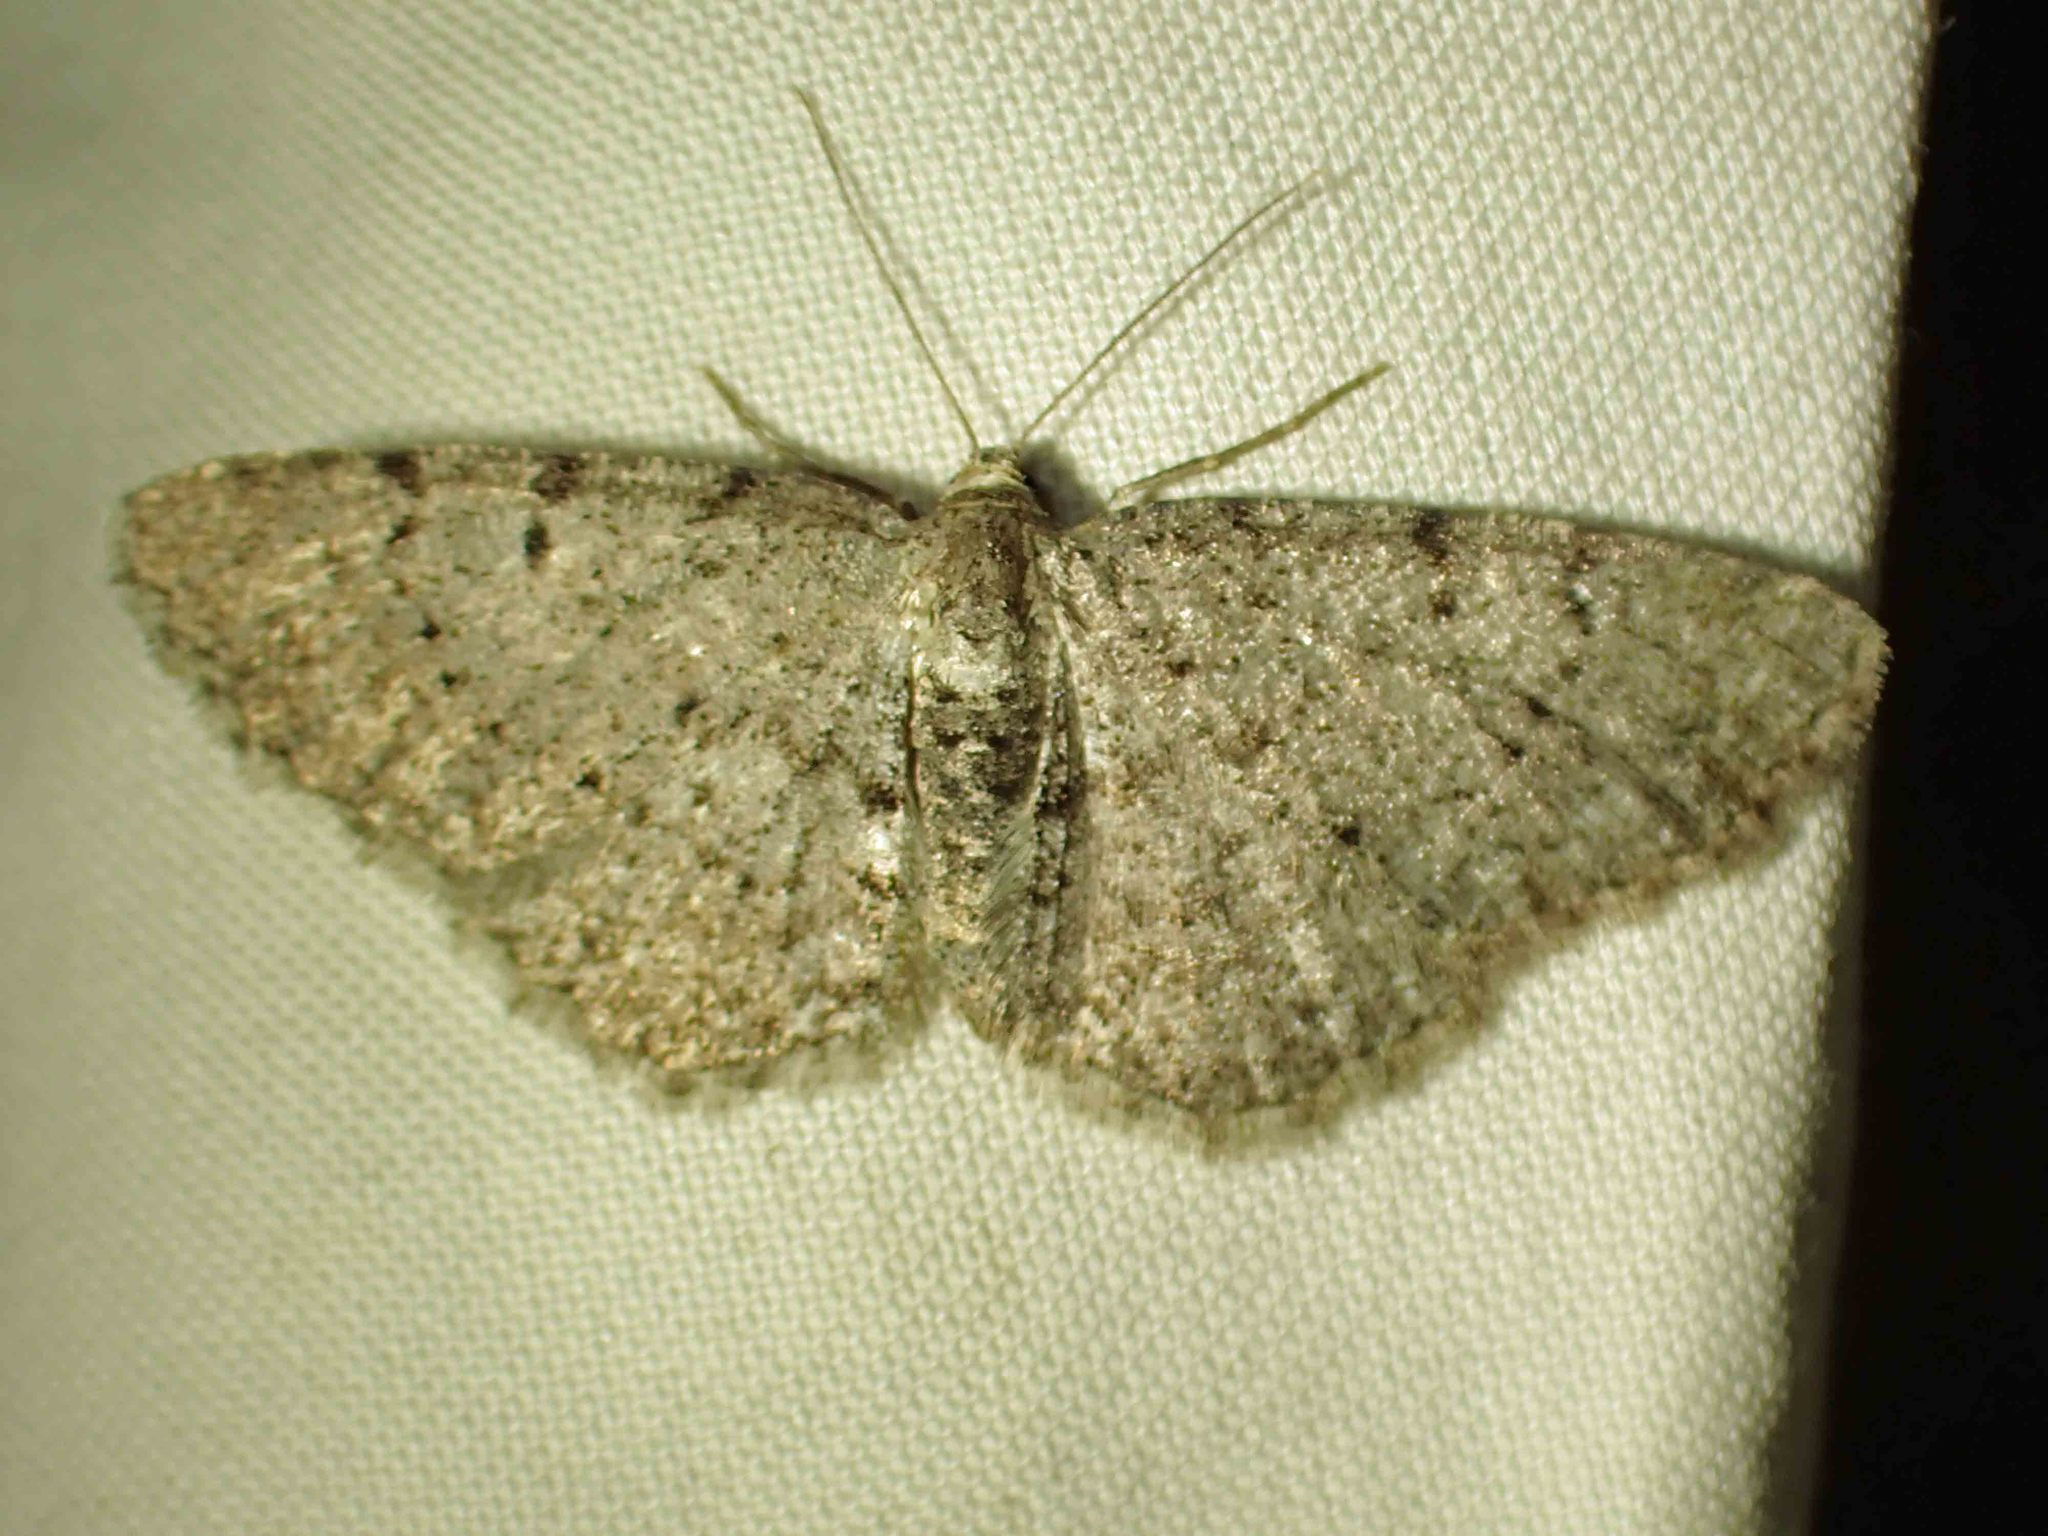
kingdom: Animalia
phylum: Arthropoda
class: Insecta
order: Lepidoptera
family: Geometridae
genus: Aethalura
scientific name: Aethalura intertexta
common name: Four-barred gray
